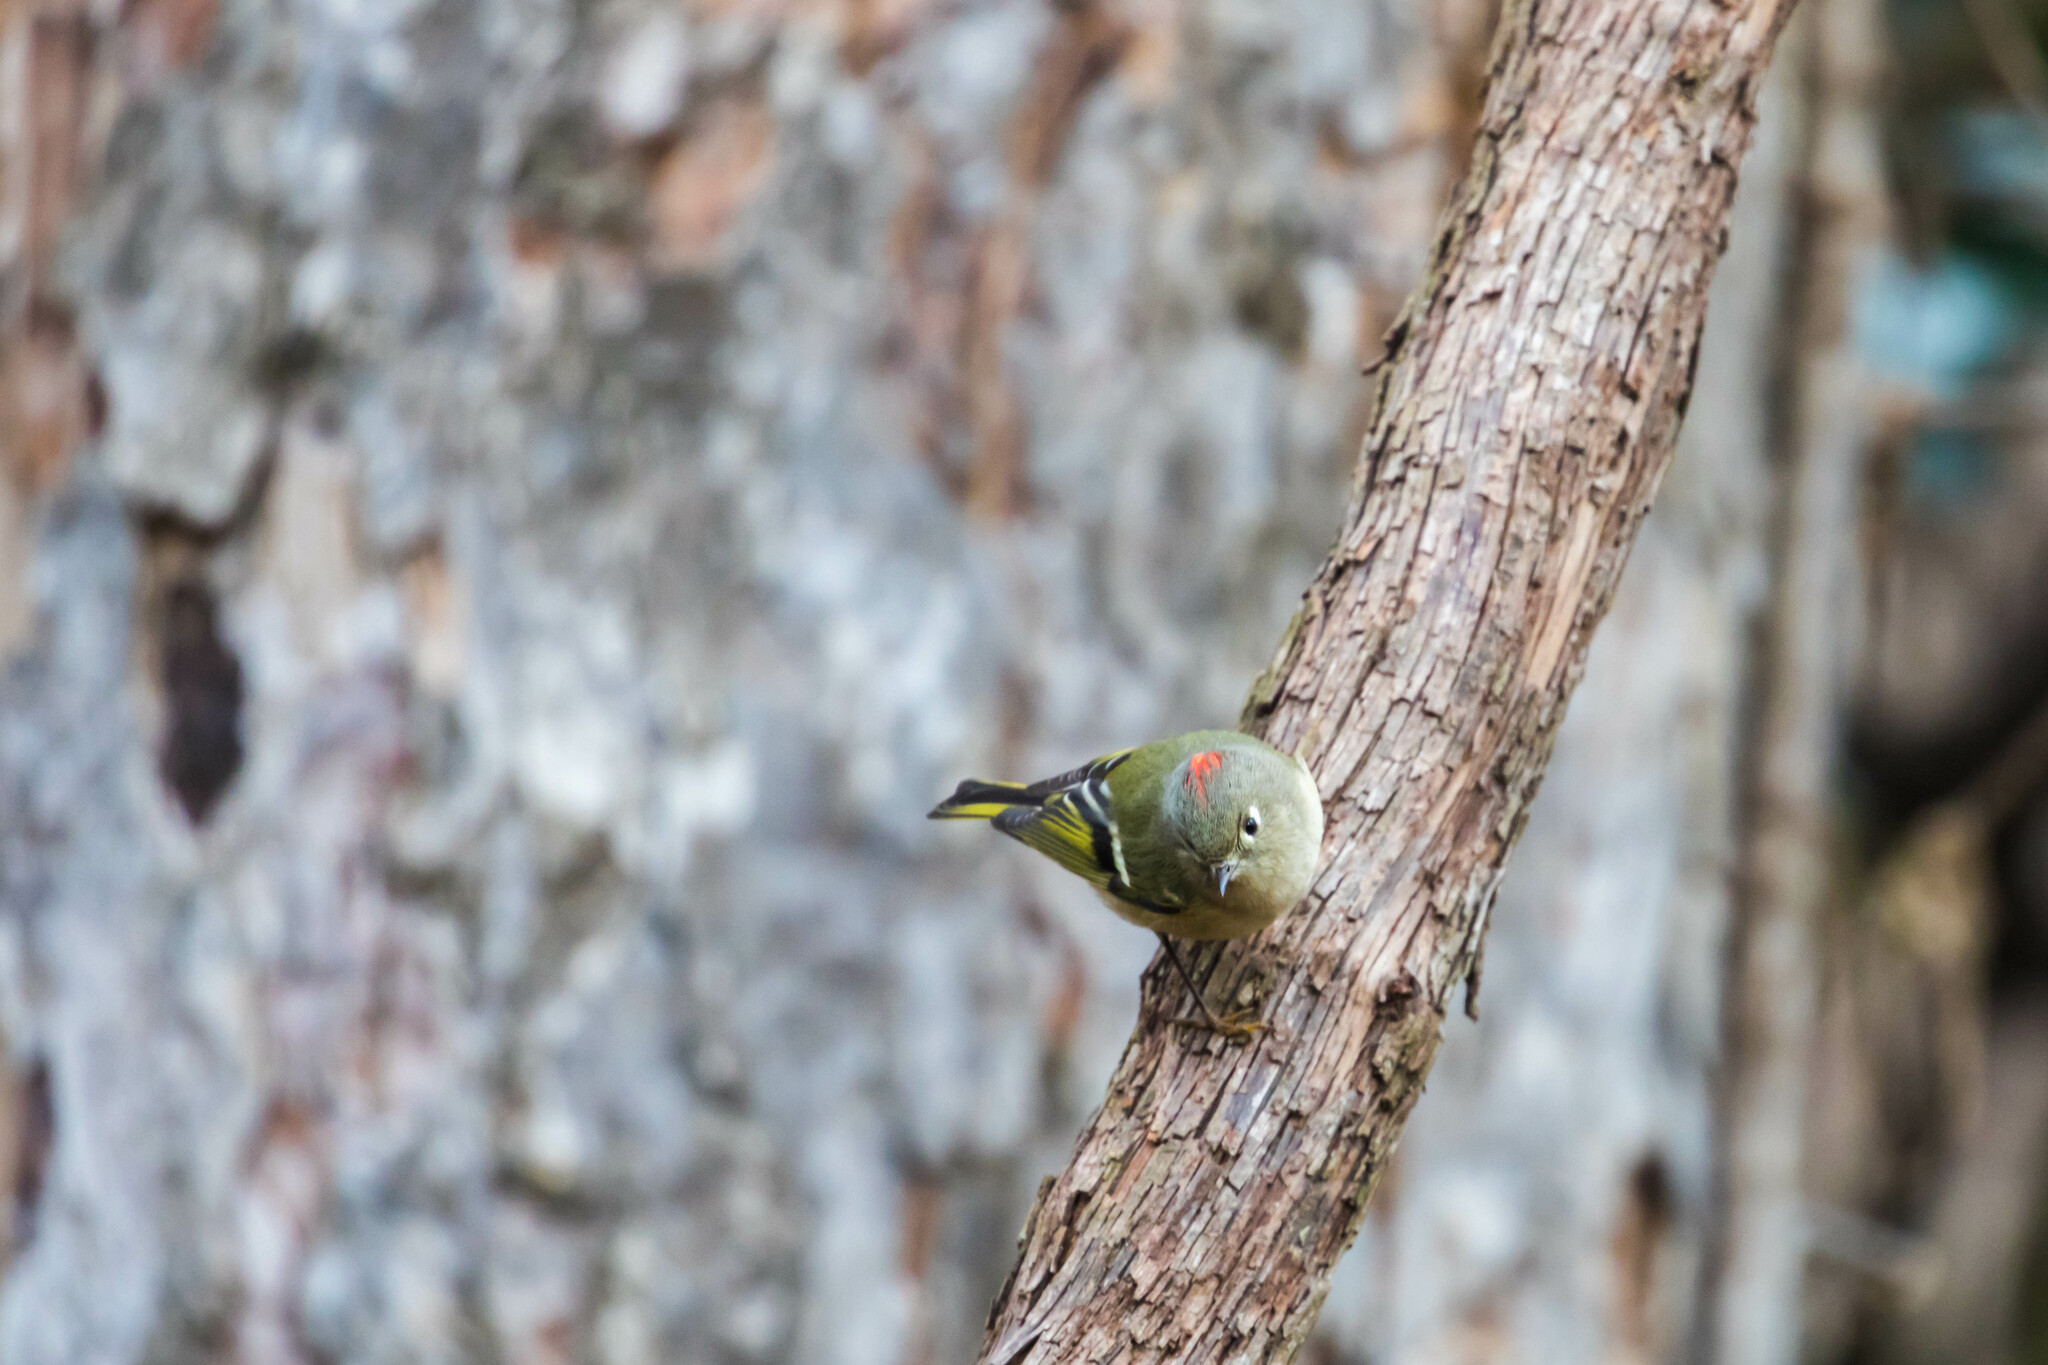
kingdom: Animalia
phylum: Chordata
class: Aves
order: Passeriformes
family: Regulidae
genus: Regulus
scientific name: Regulus calendula
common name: Ruby-crowned kinglet
